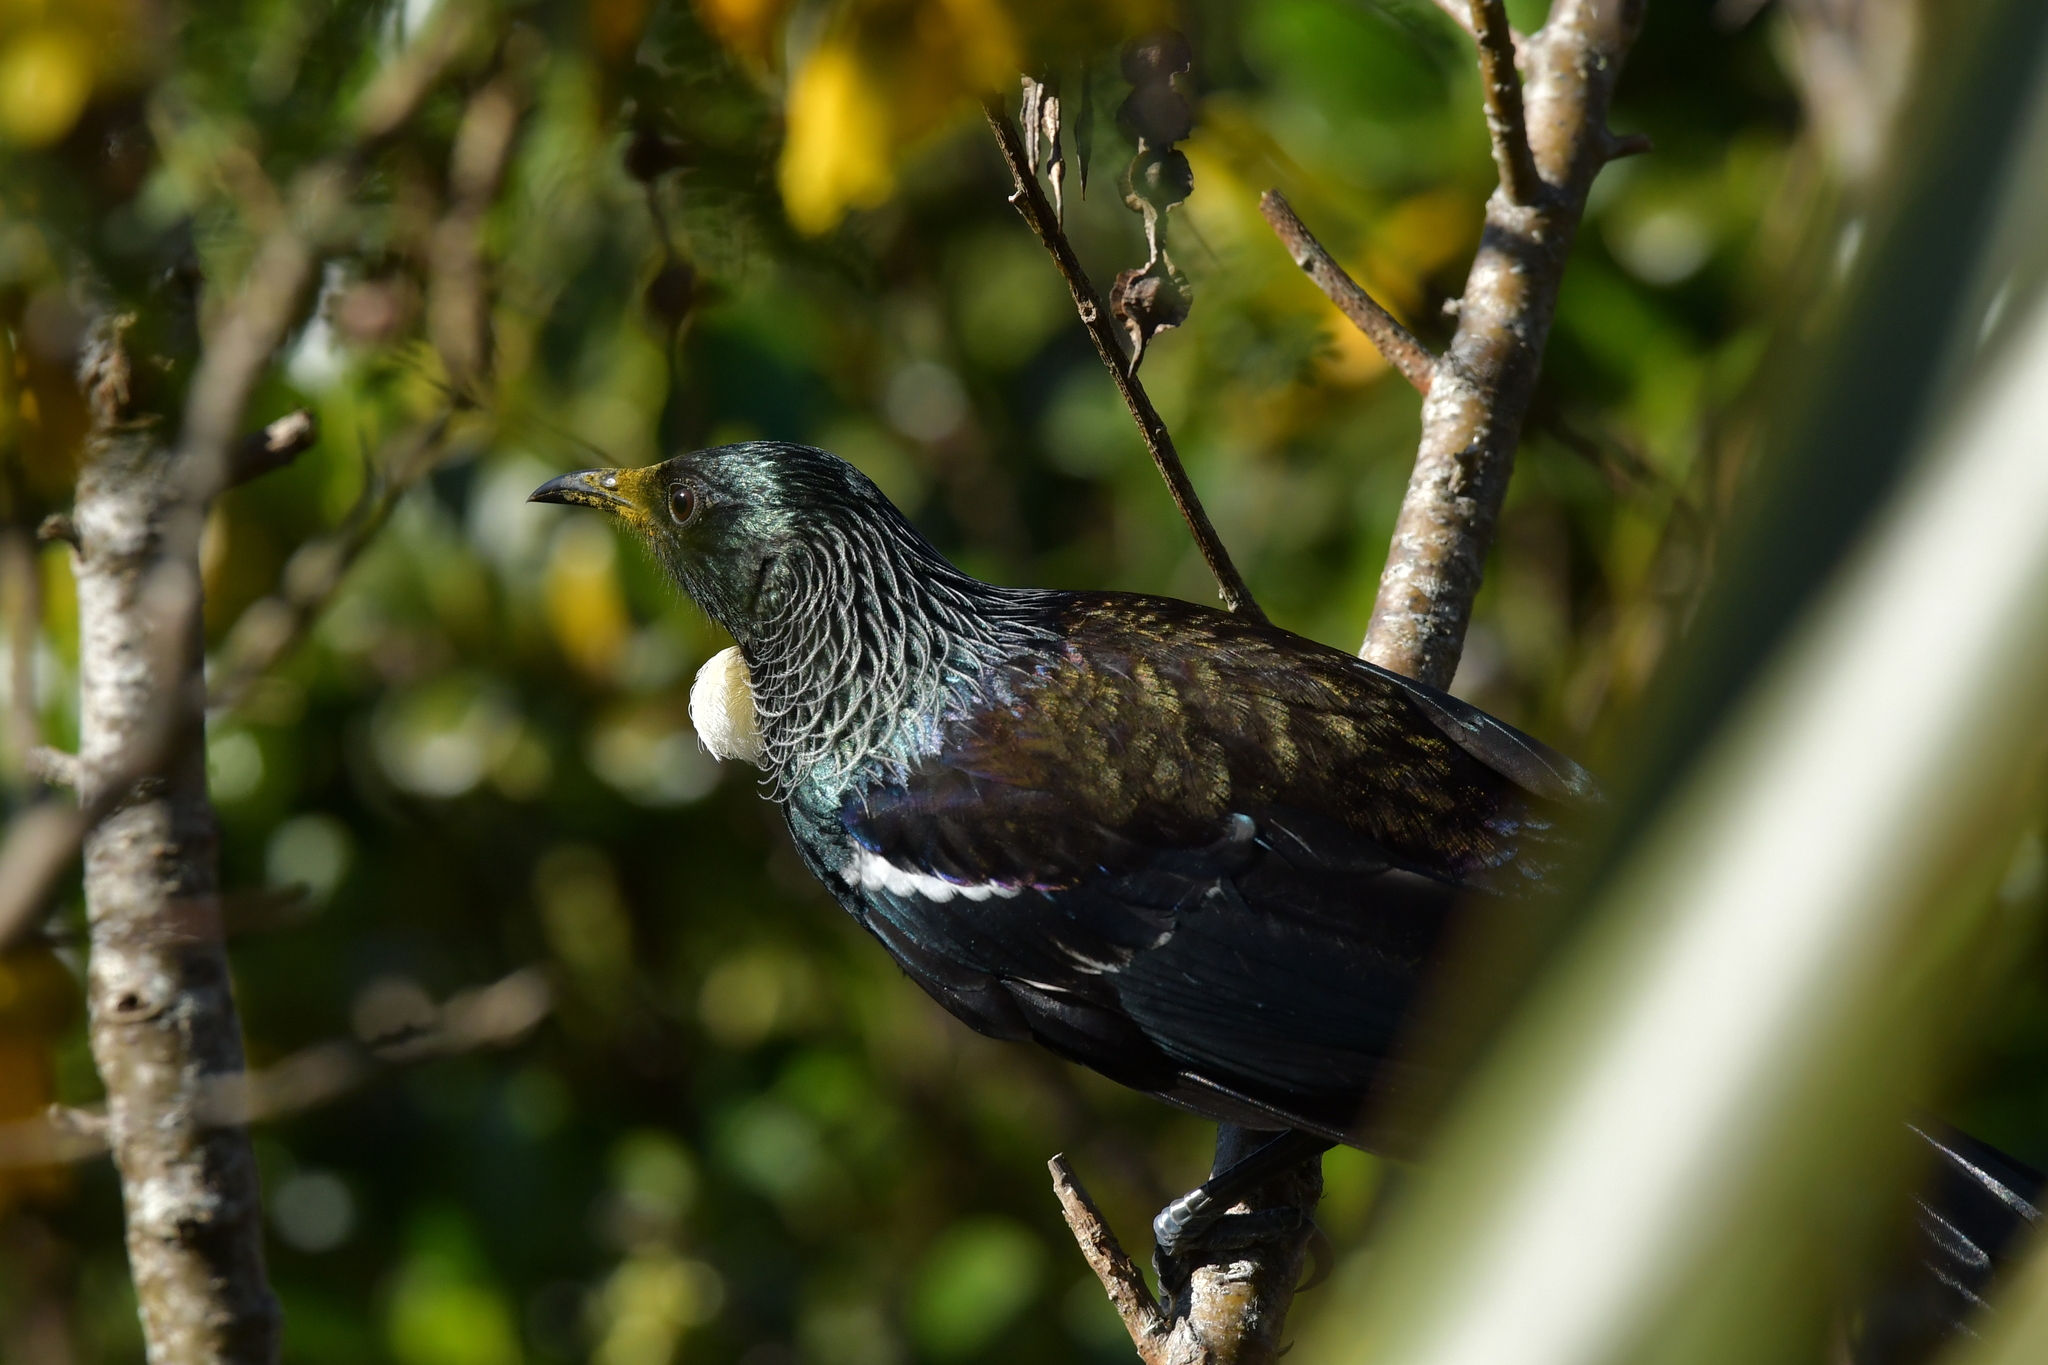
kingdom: Animalia
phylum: Chordata
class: Aves
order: Passeriformes
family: Meliphagidae
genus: Prosthemadera
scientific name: Prosthemadera novaeseelandiae
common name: Tui
